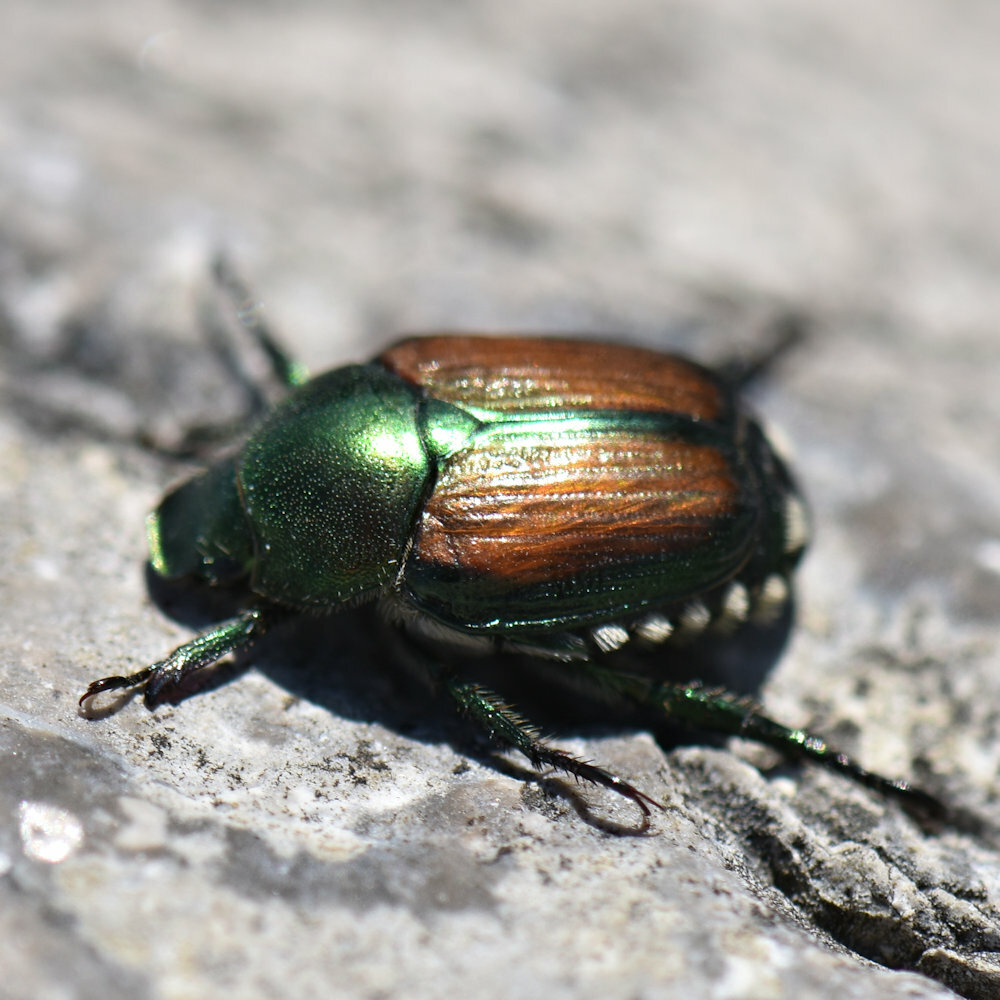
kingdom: Animalia
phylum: Arthropoda
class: Insecta
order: Coleoptera
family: Scarabaeidae
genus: Popillia
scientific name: Popillia japonica
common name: Japanese beetle
